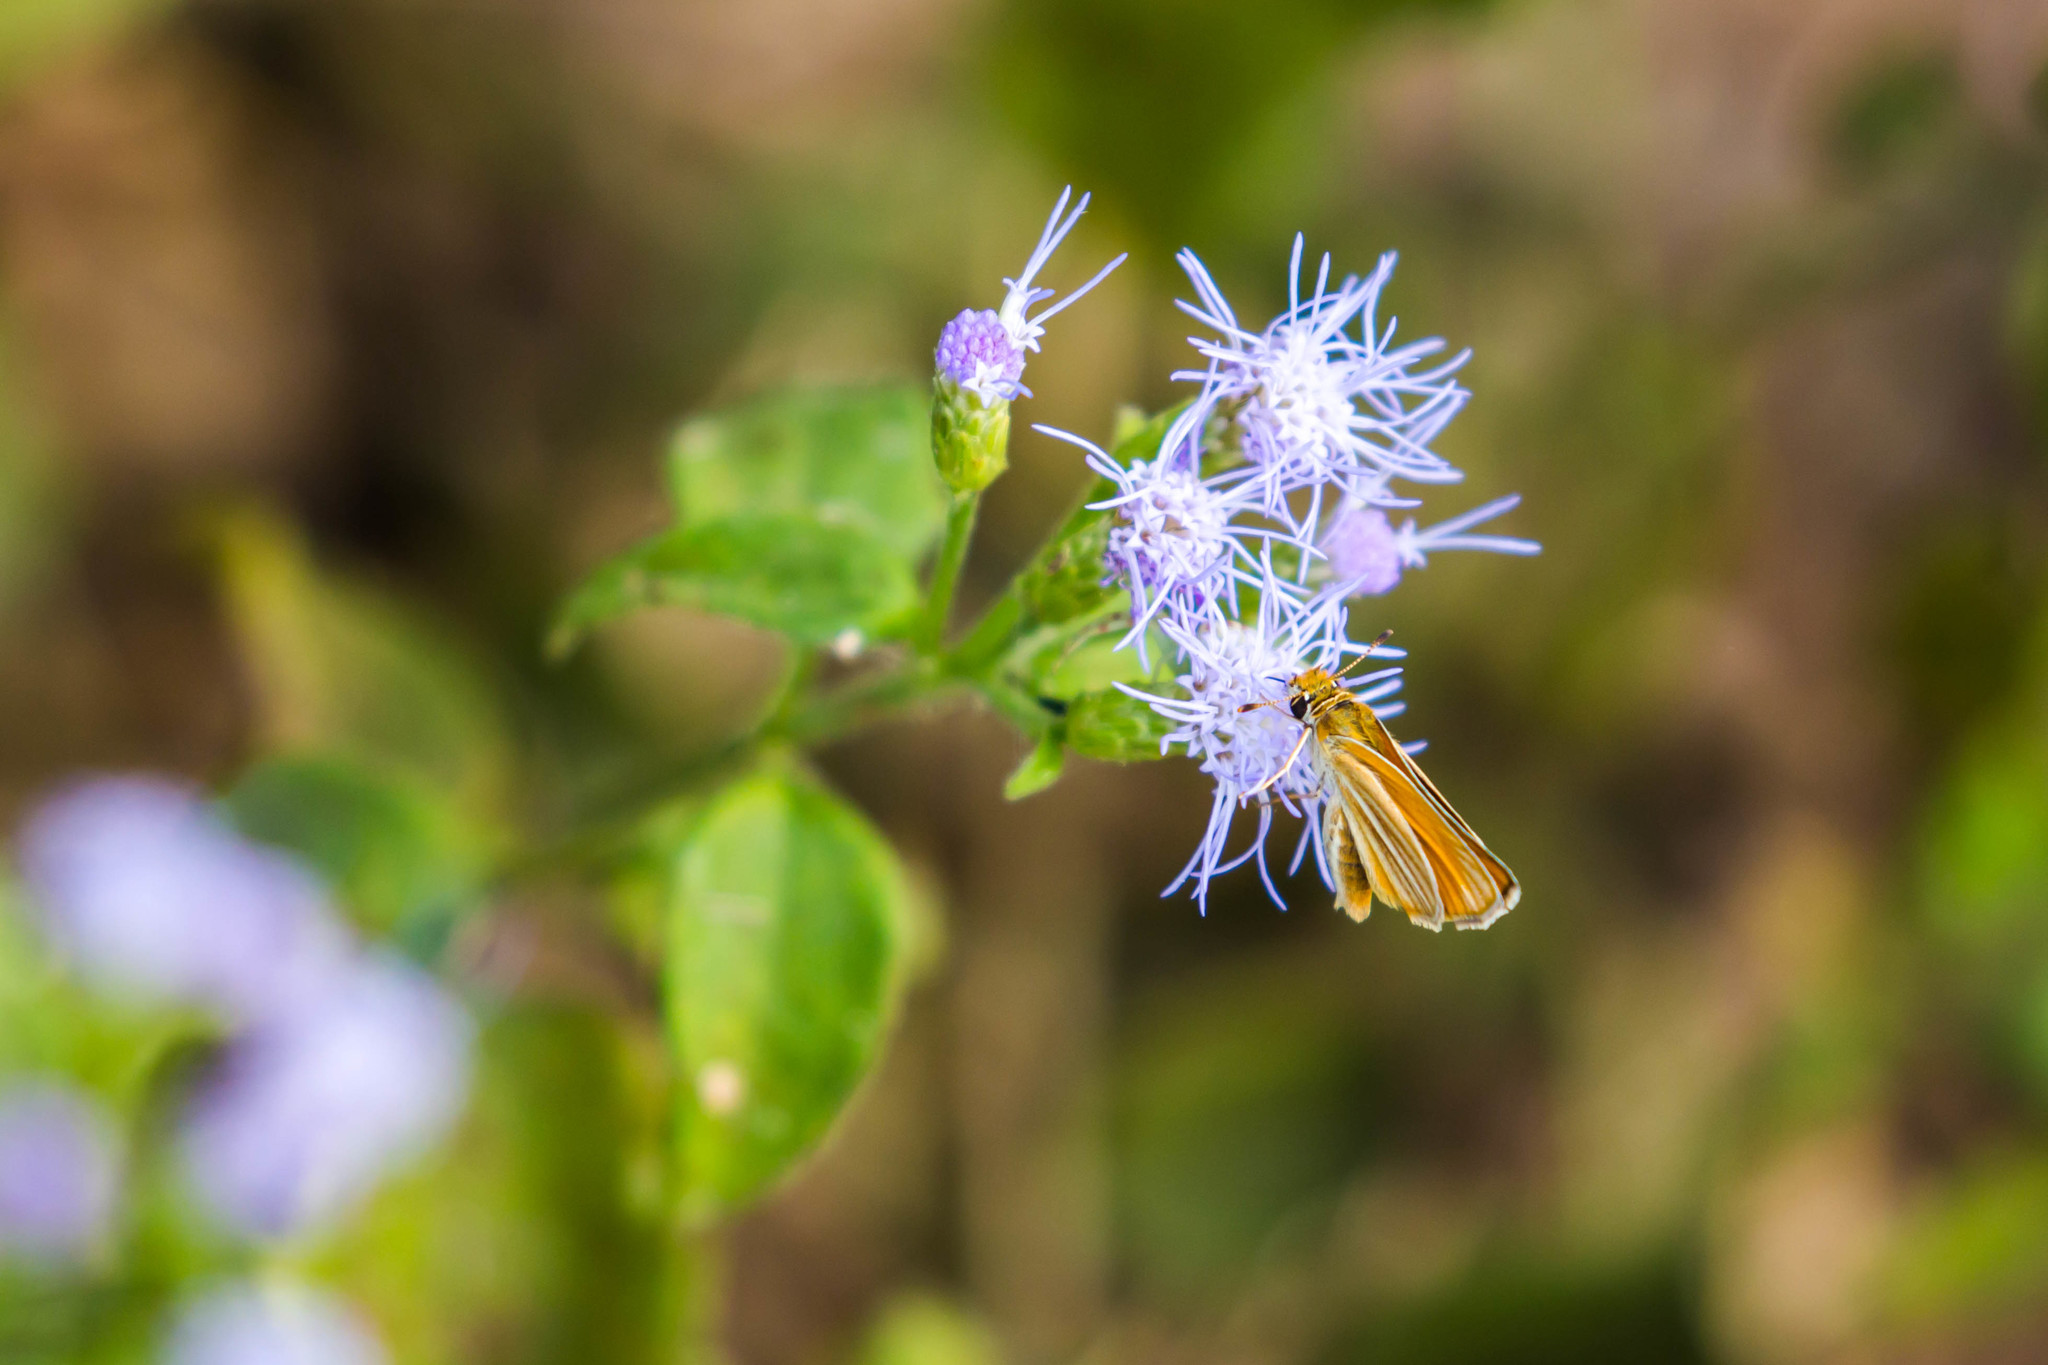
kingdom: Animalia
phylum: Arthropoda
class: Insecta
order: Lepidoptera
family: Hesperiidae
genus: Copaeodes
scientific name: Copaeodes minima
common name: Southern skipperling
